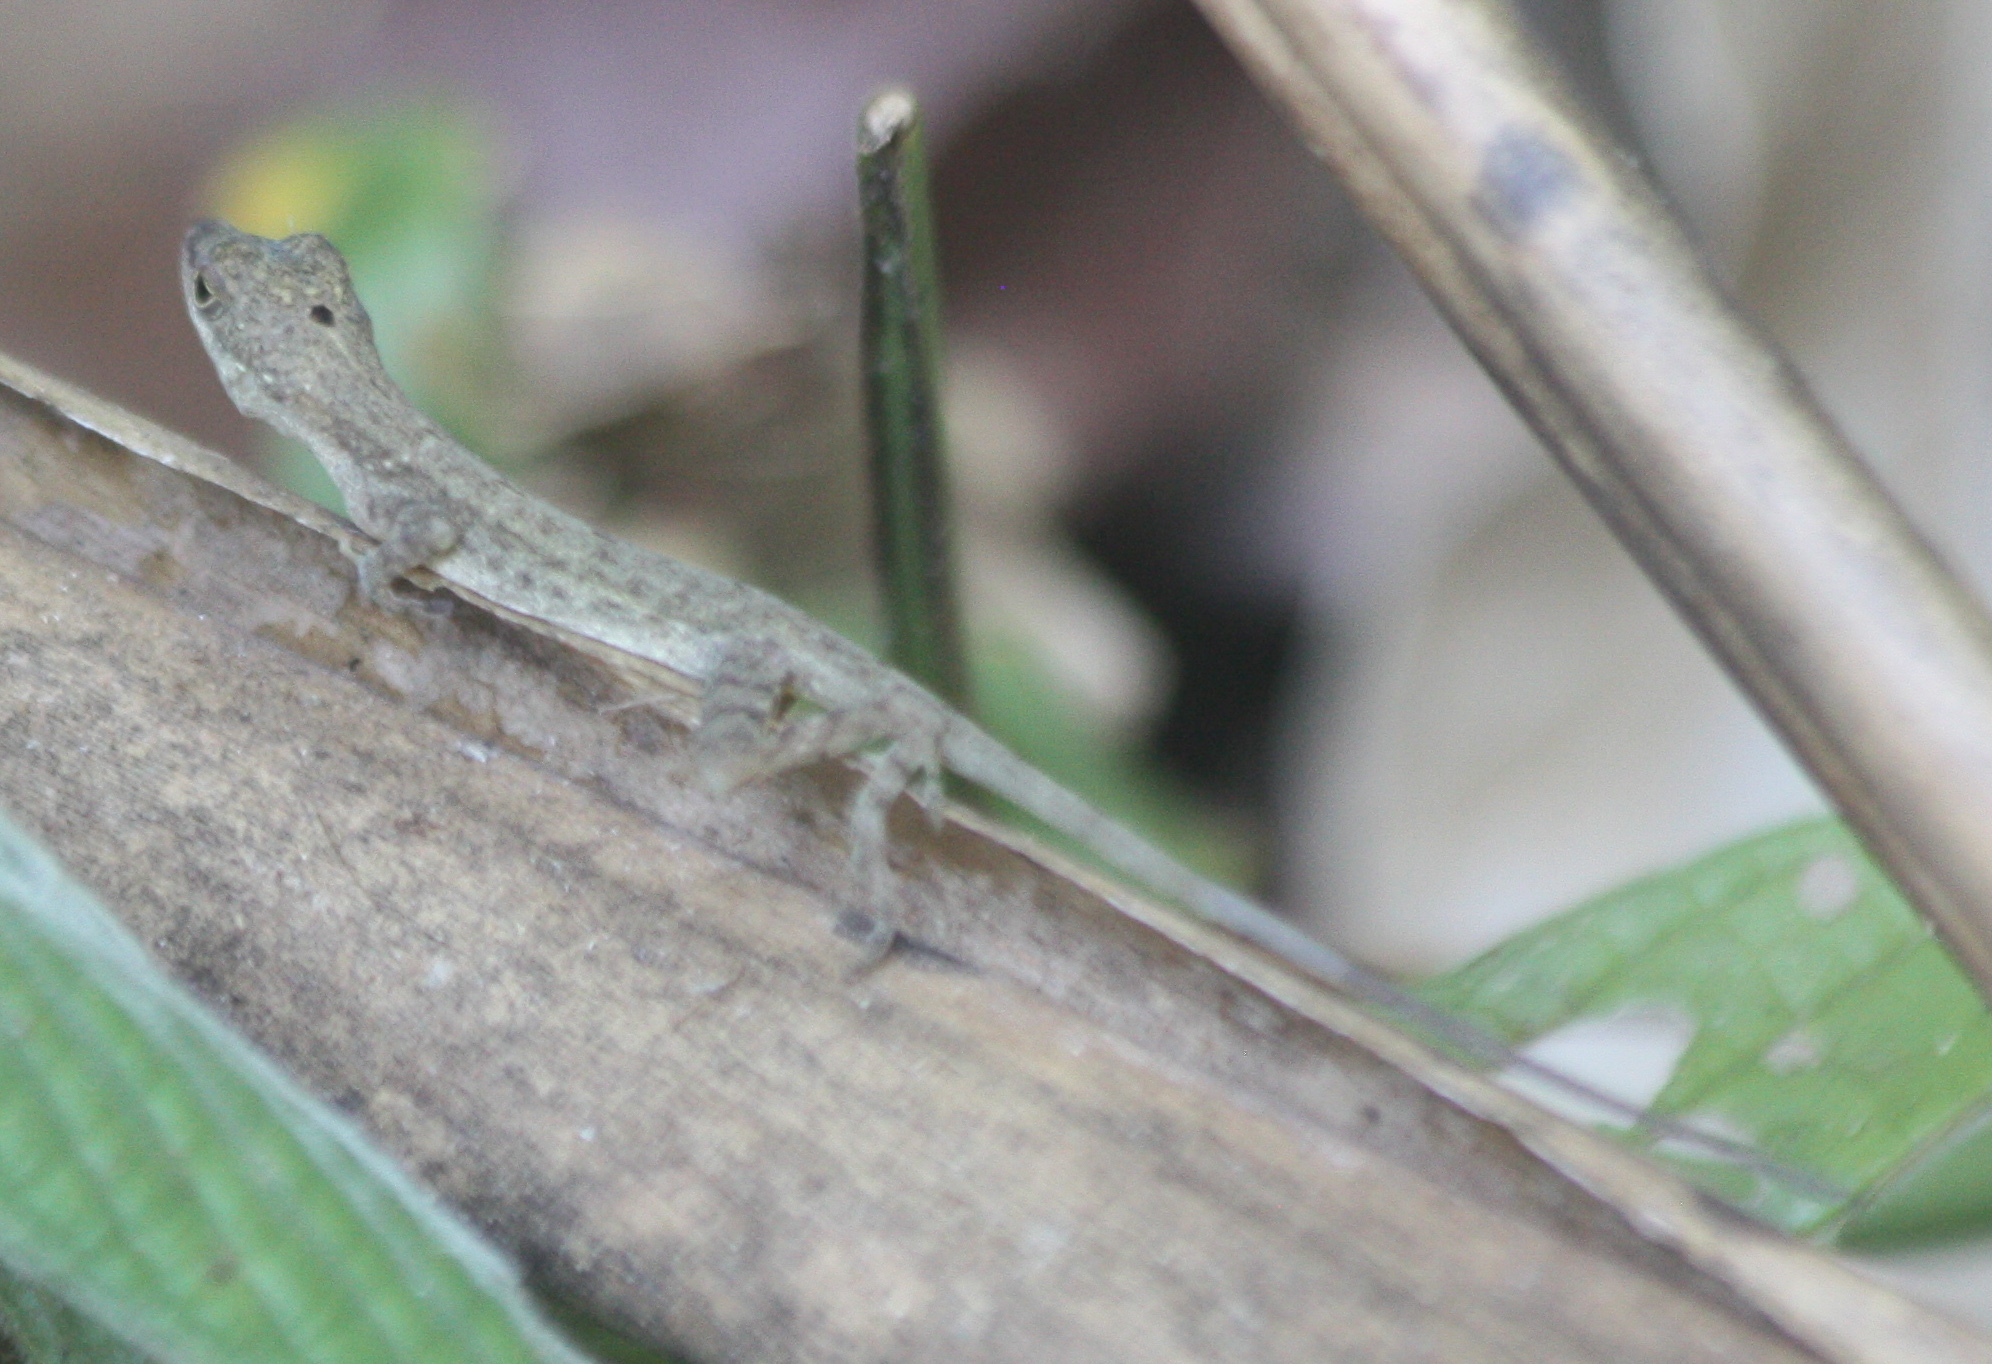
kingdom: Animalia
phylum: Chordata
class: Squamata
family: Dactyloidae
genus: Anolis
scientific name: Anolis limifrons
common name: Border anole
